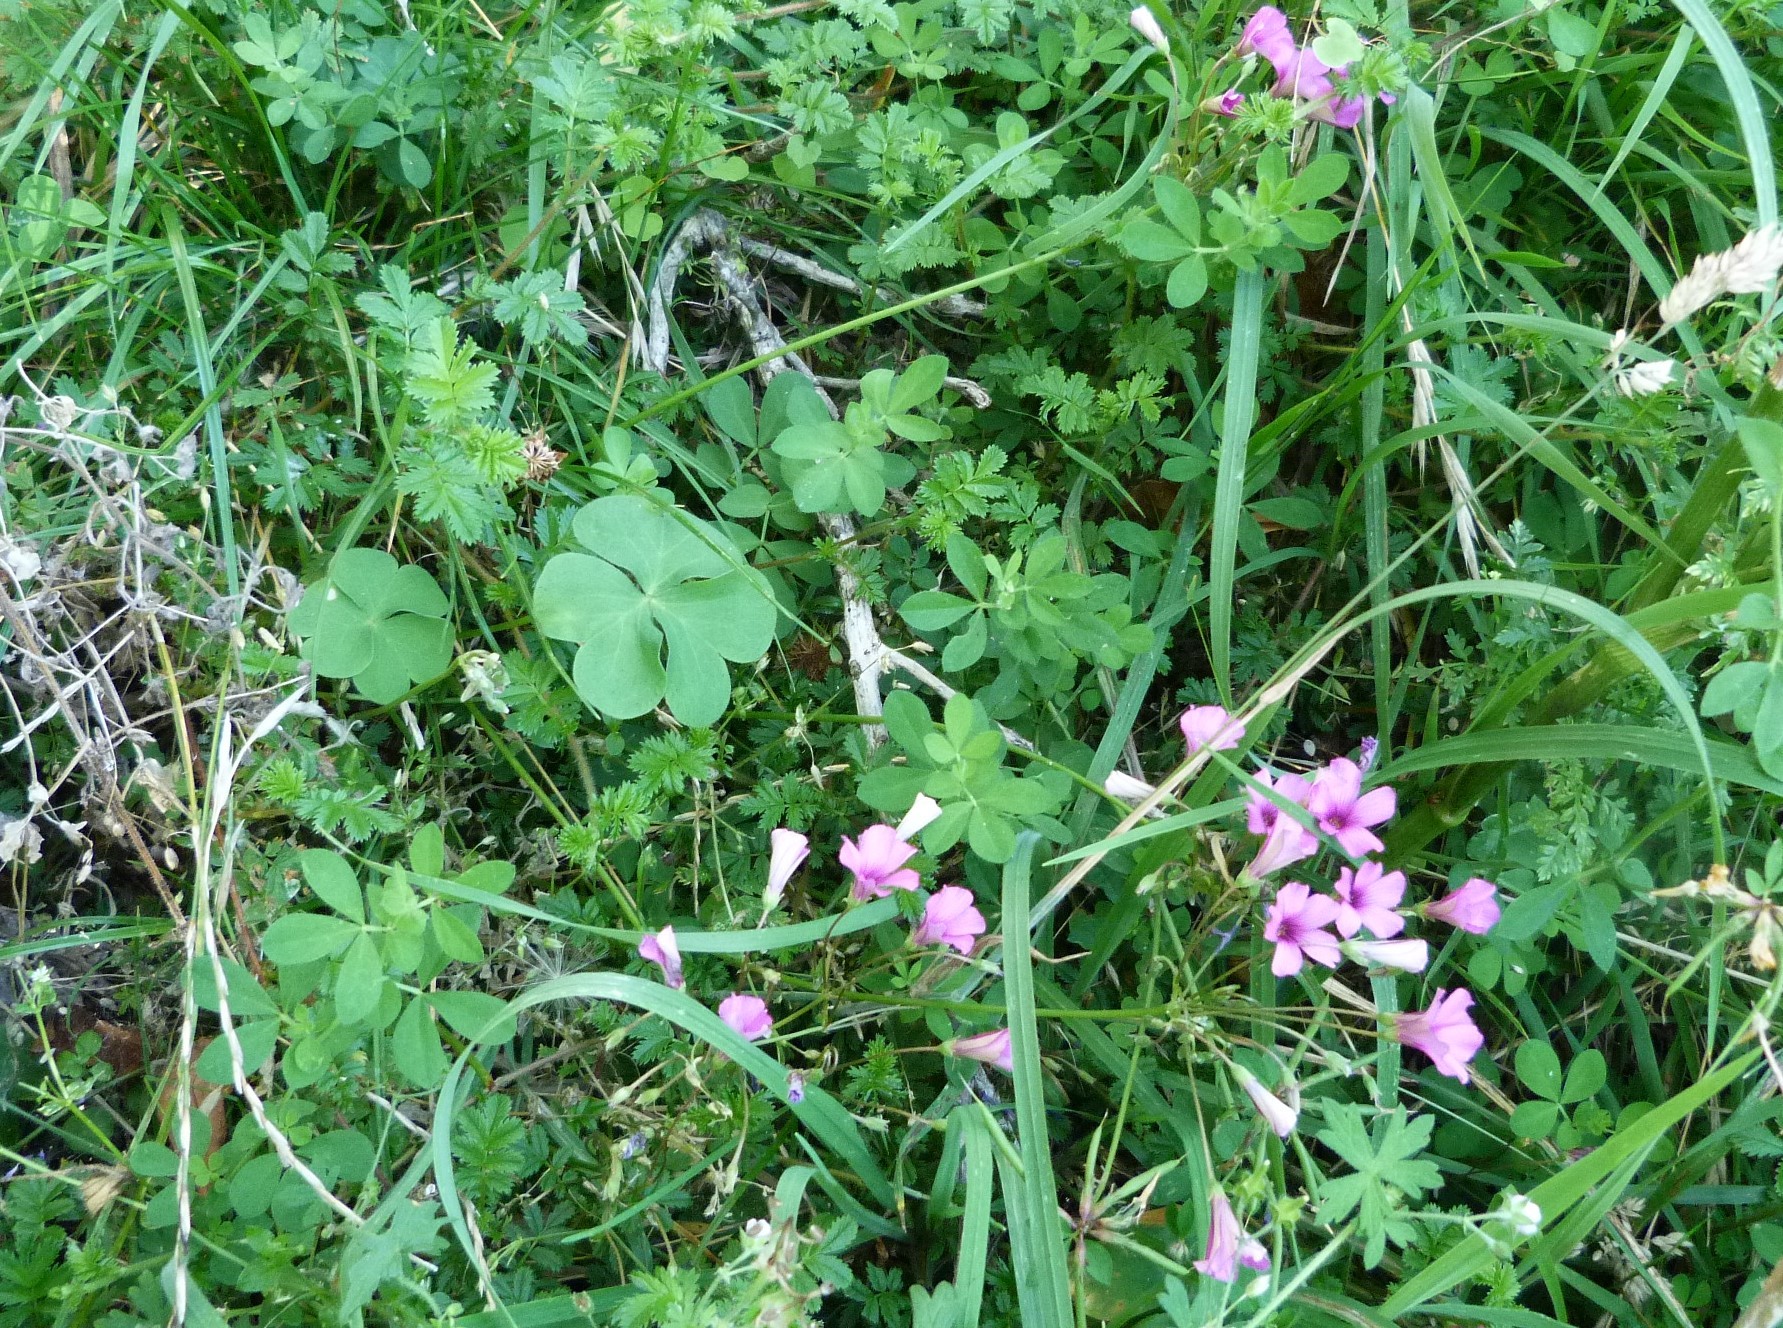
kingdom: Plantae
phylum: Tracheophyta
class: Magnoliopsida
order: Oxalidales
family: Oxalidaceae
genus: Oxalis
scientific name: Oxalis articulata
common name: Pink-sorrel
